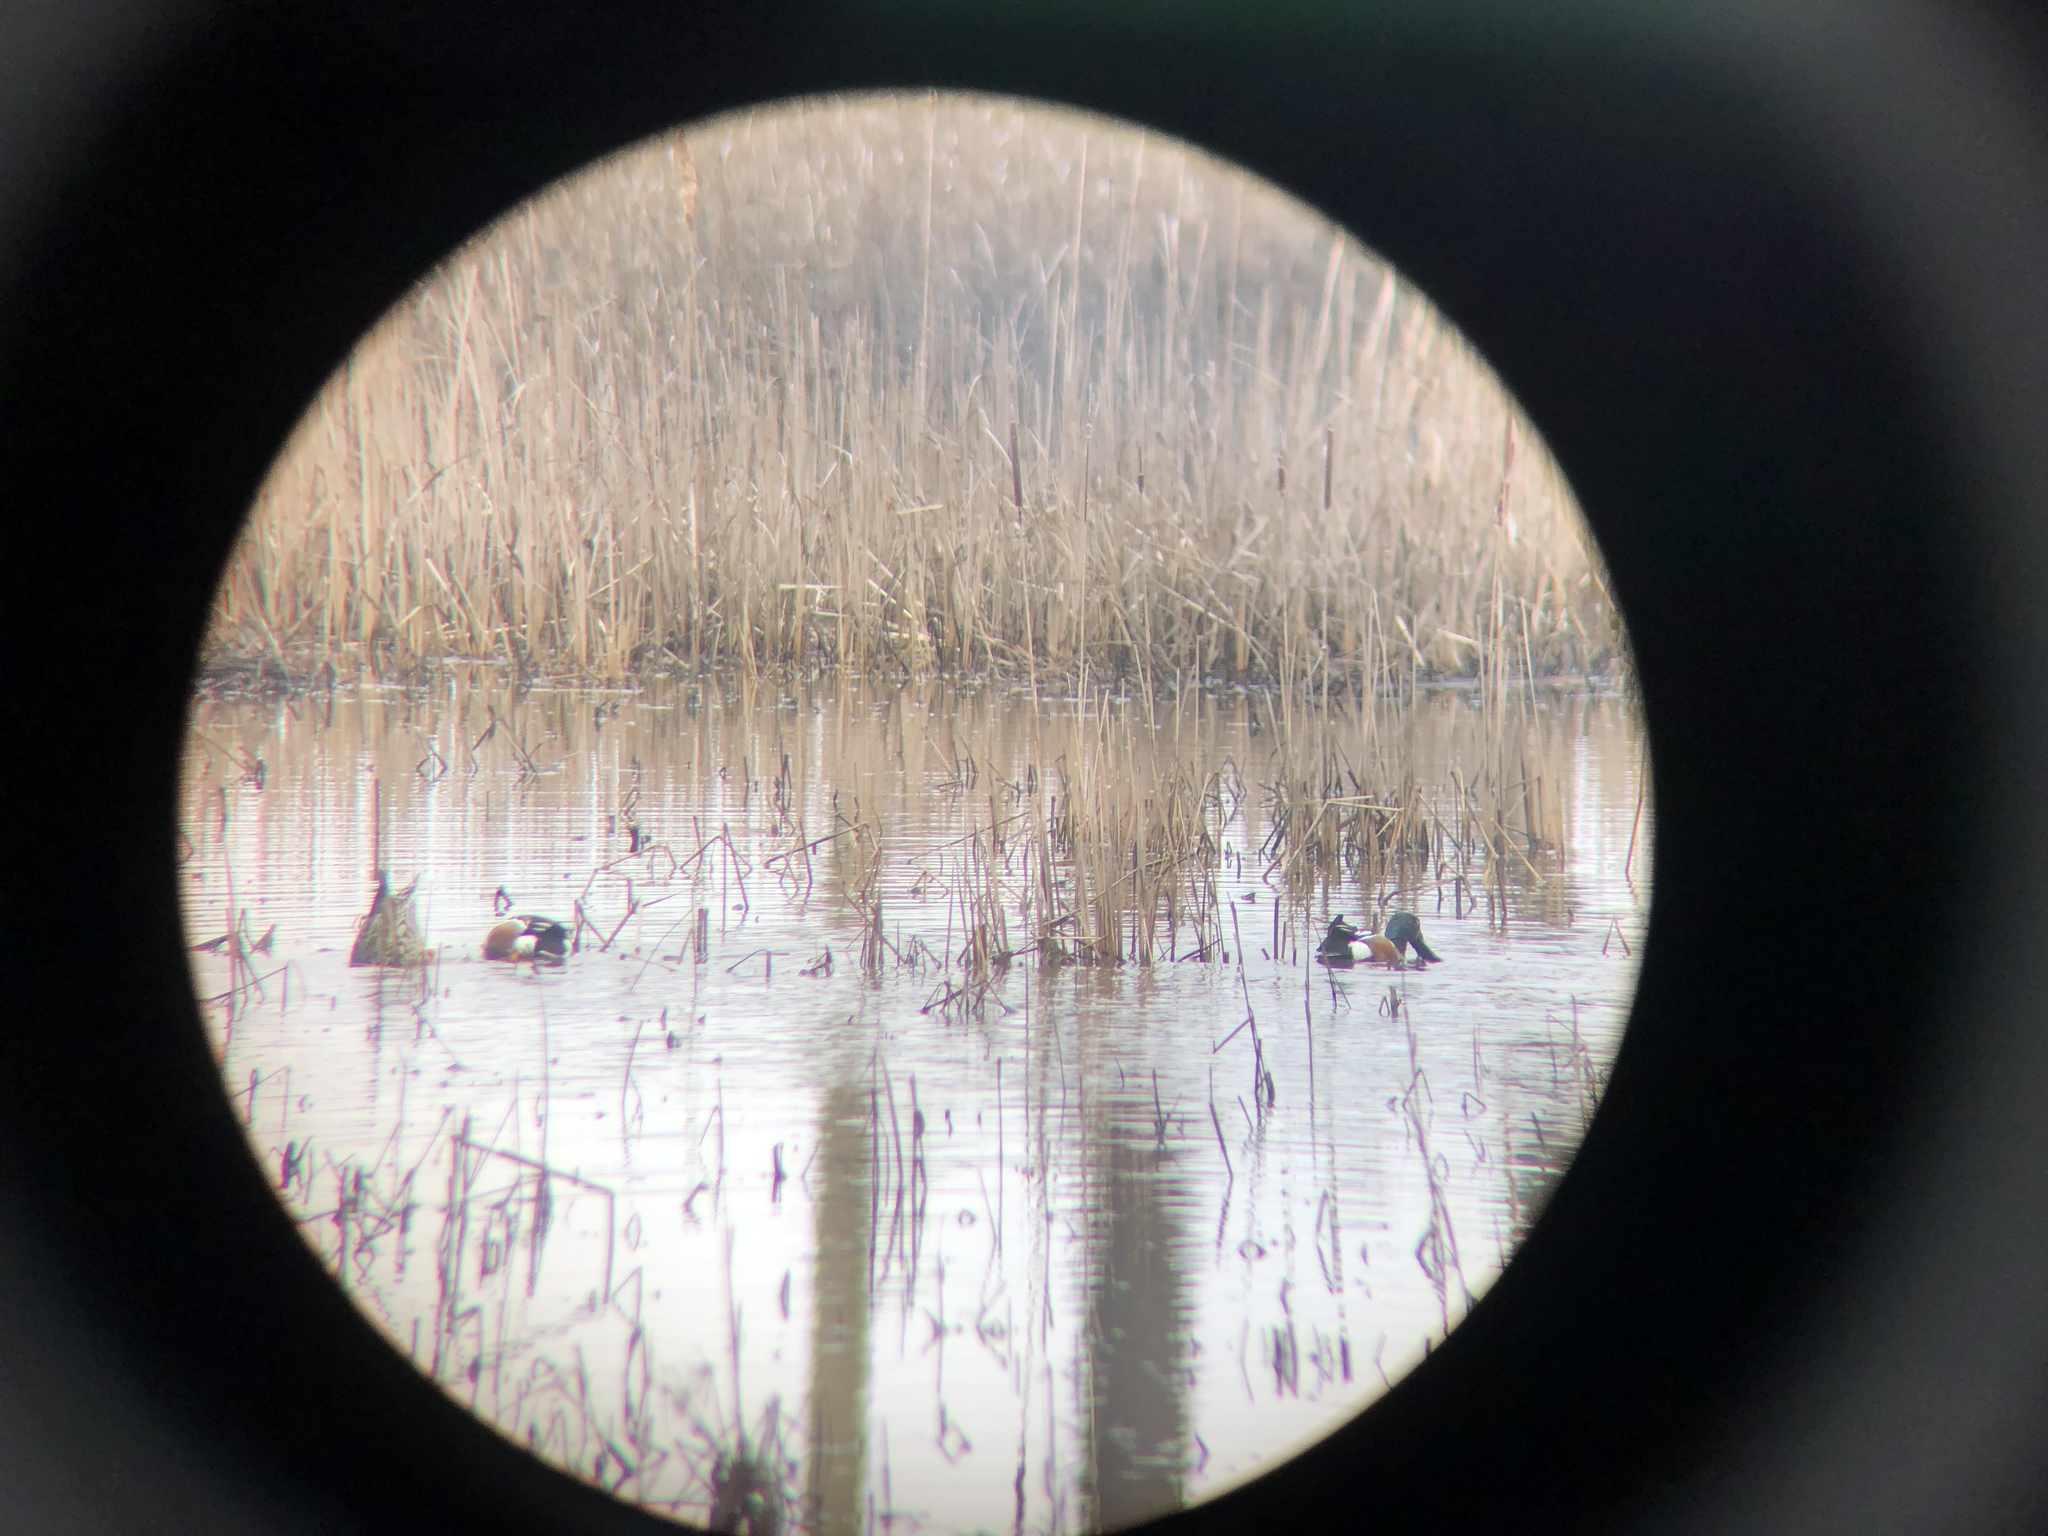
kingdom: Animalia
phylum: Chordata
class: Aves
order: Anseriformes
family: Anatidae
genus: Spatula
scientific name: Spatula clypeata
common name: Northern shoveler
